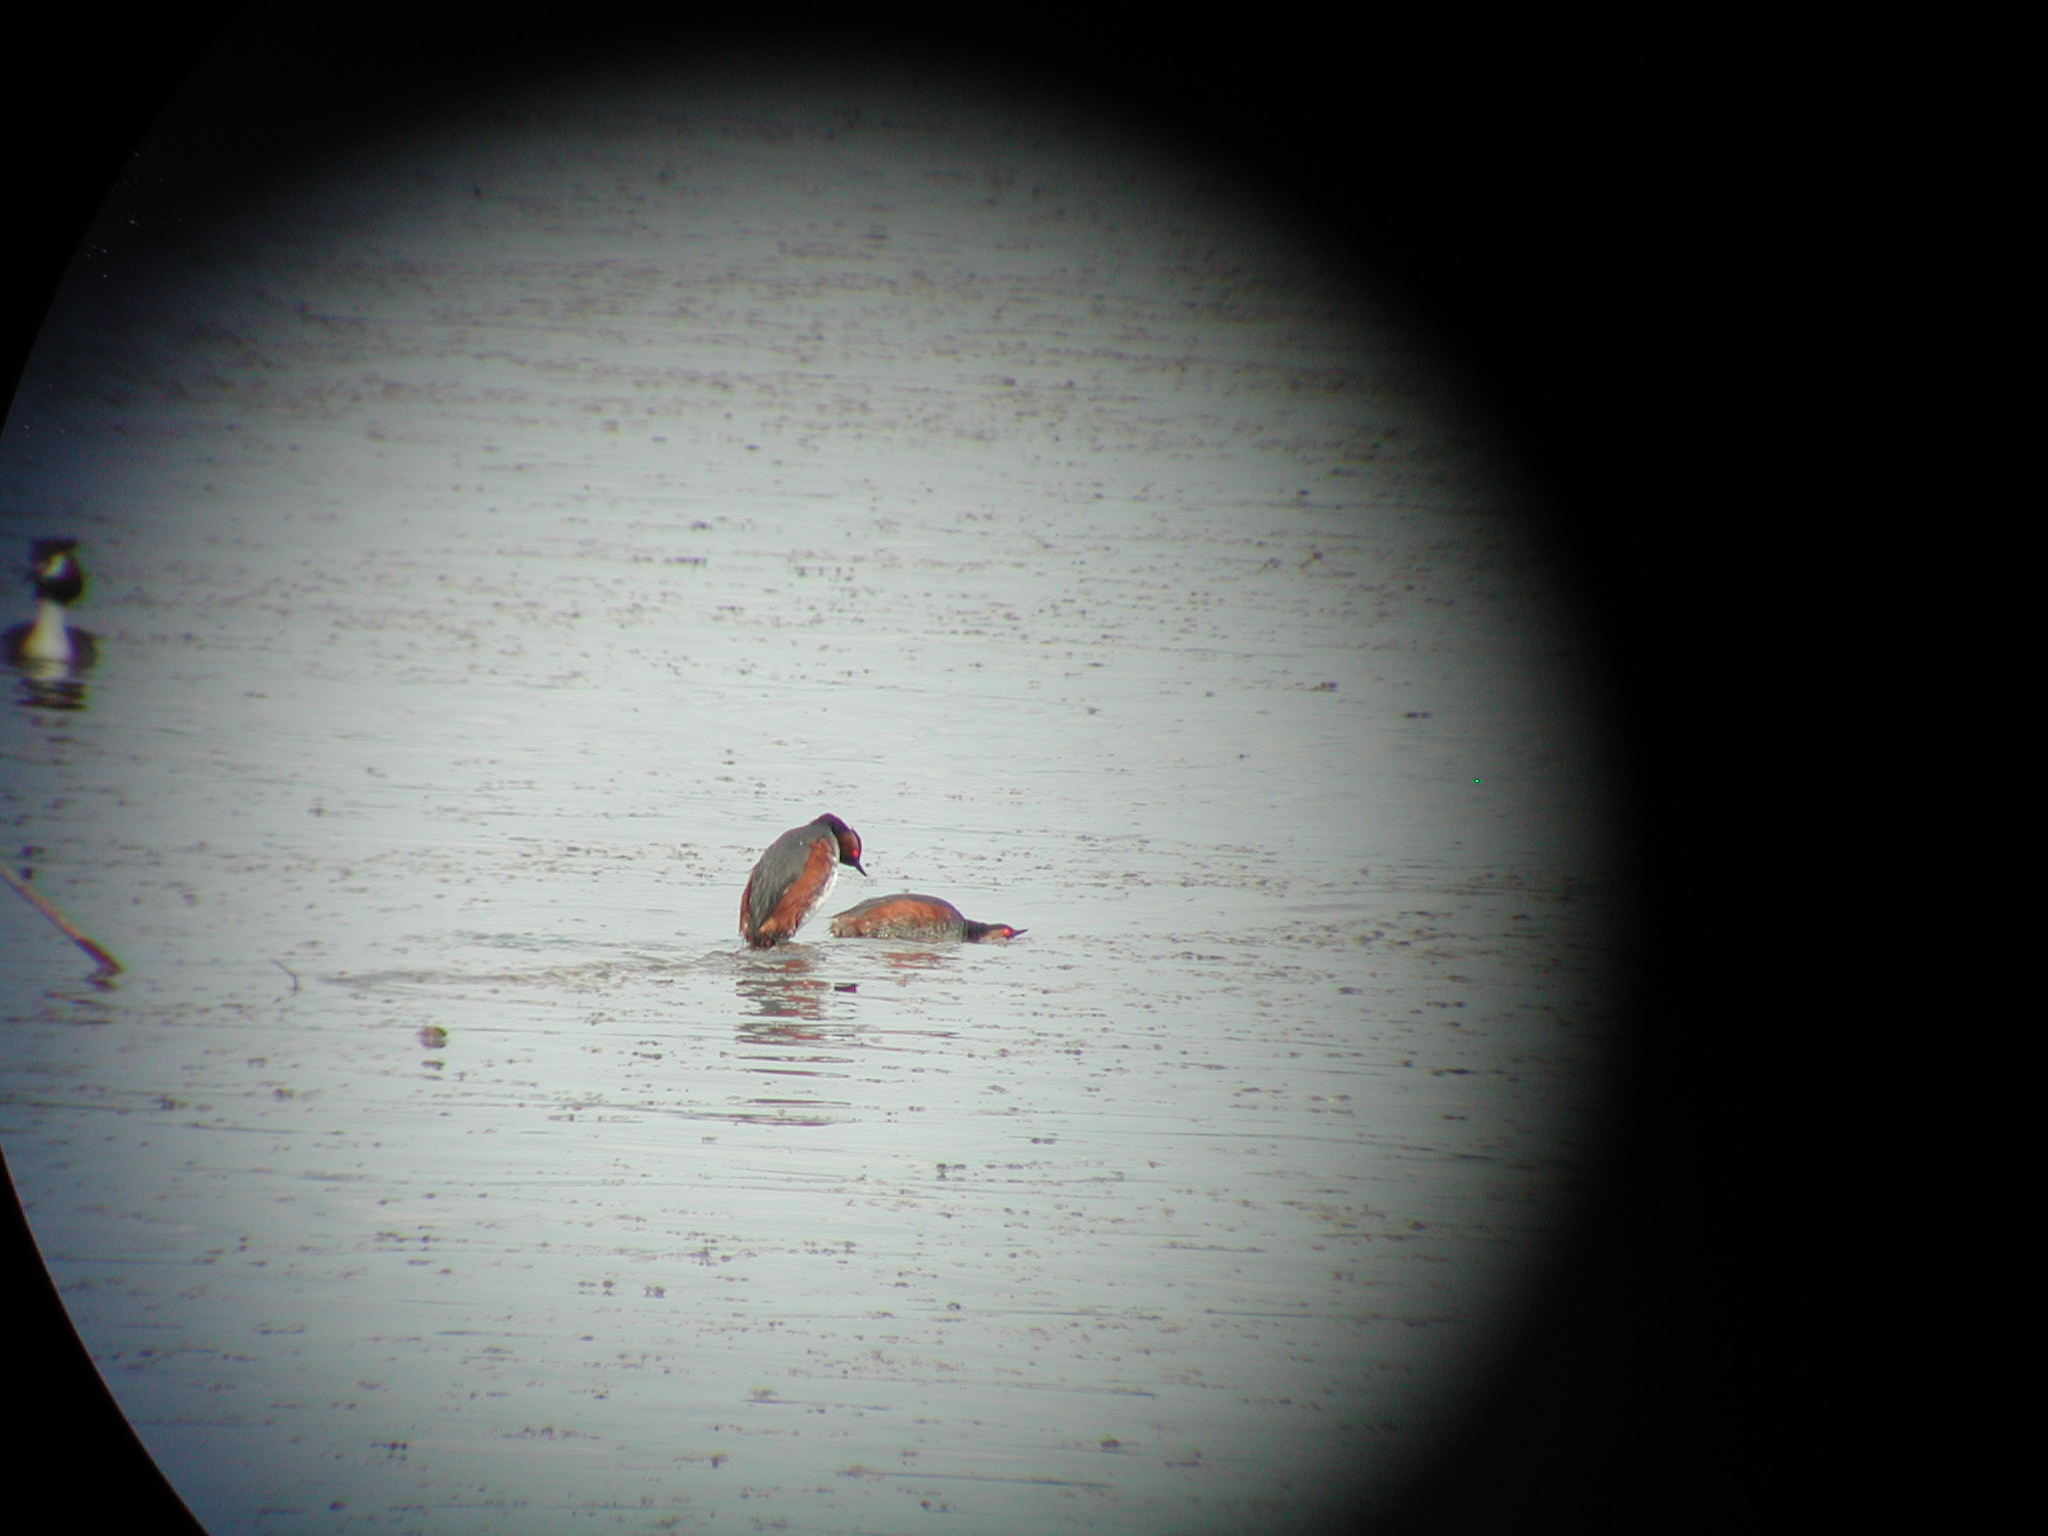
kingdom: Animalia
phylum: Chordata
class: Aves
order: Podicipediformes
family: Podicipedidae
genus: Podiceps
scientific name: Podiceps nigricollis
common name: Black-necked grebe
